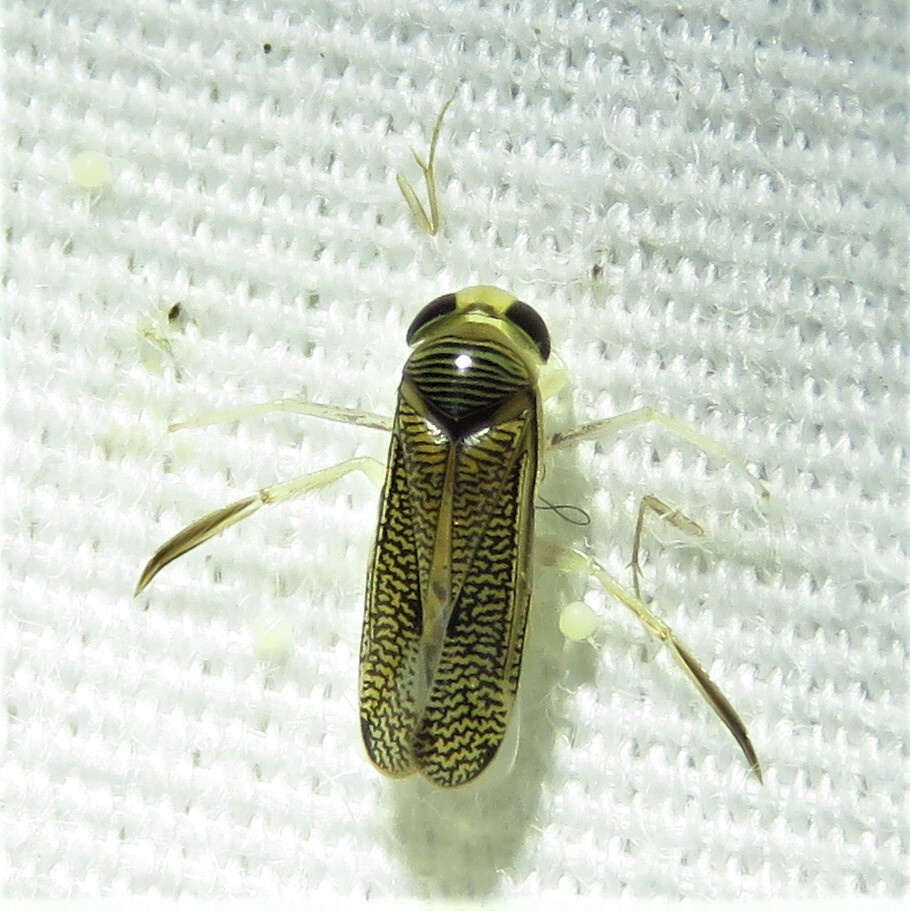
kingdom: Animalia
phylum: Arthropoda
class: Insecta
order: Hemiptera
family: Corixidae
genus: Trichocorixa
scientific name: Trichocorixa
